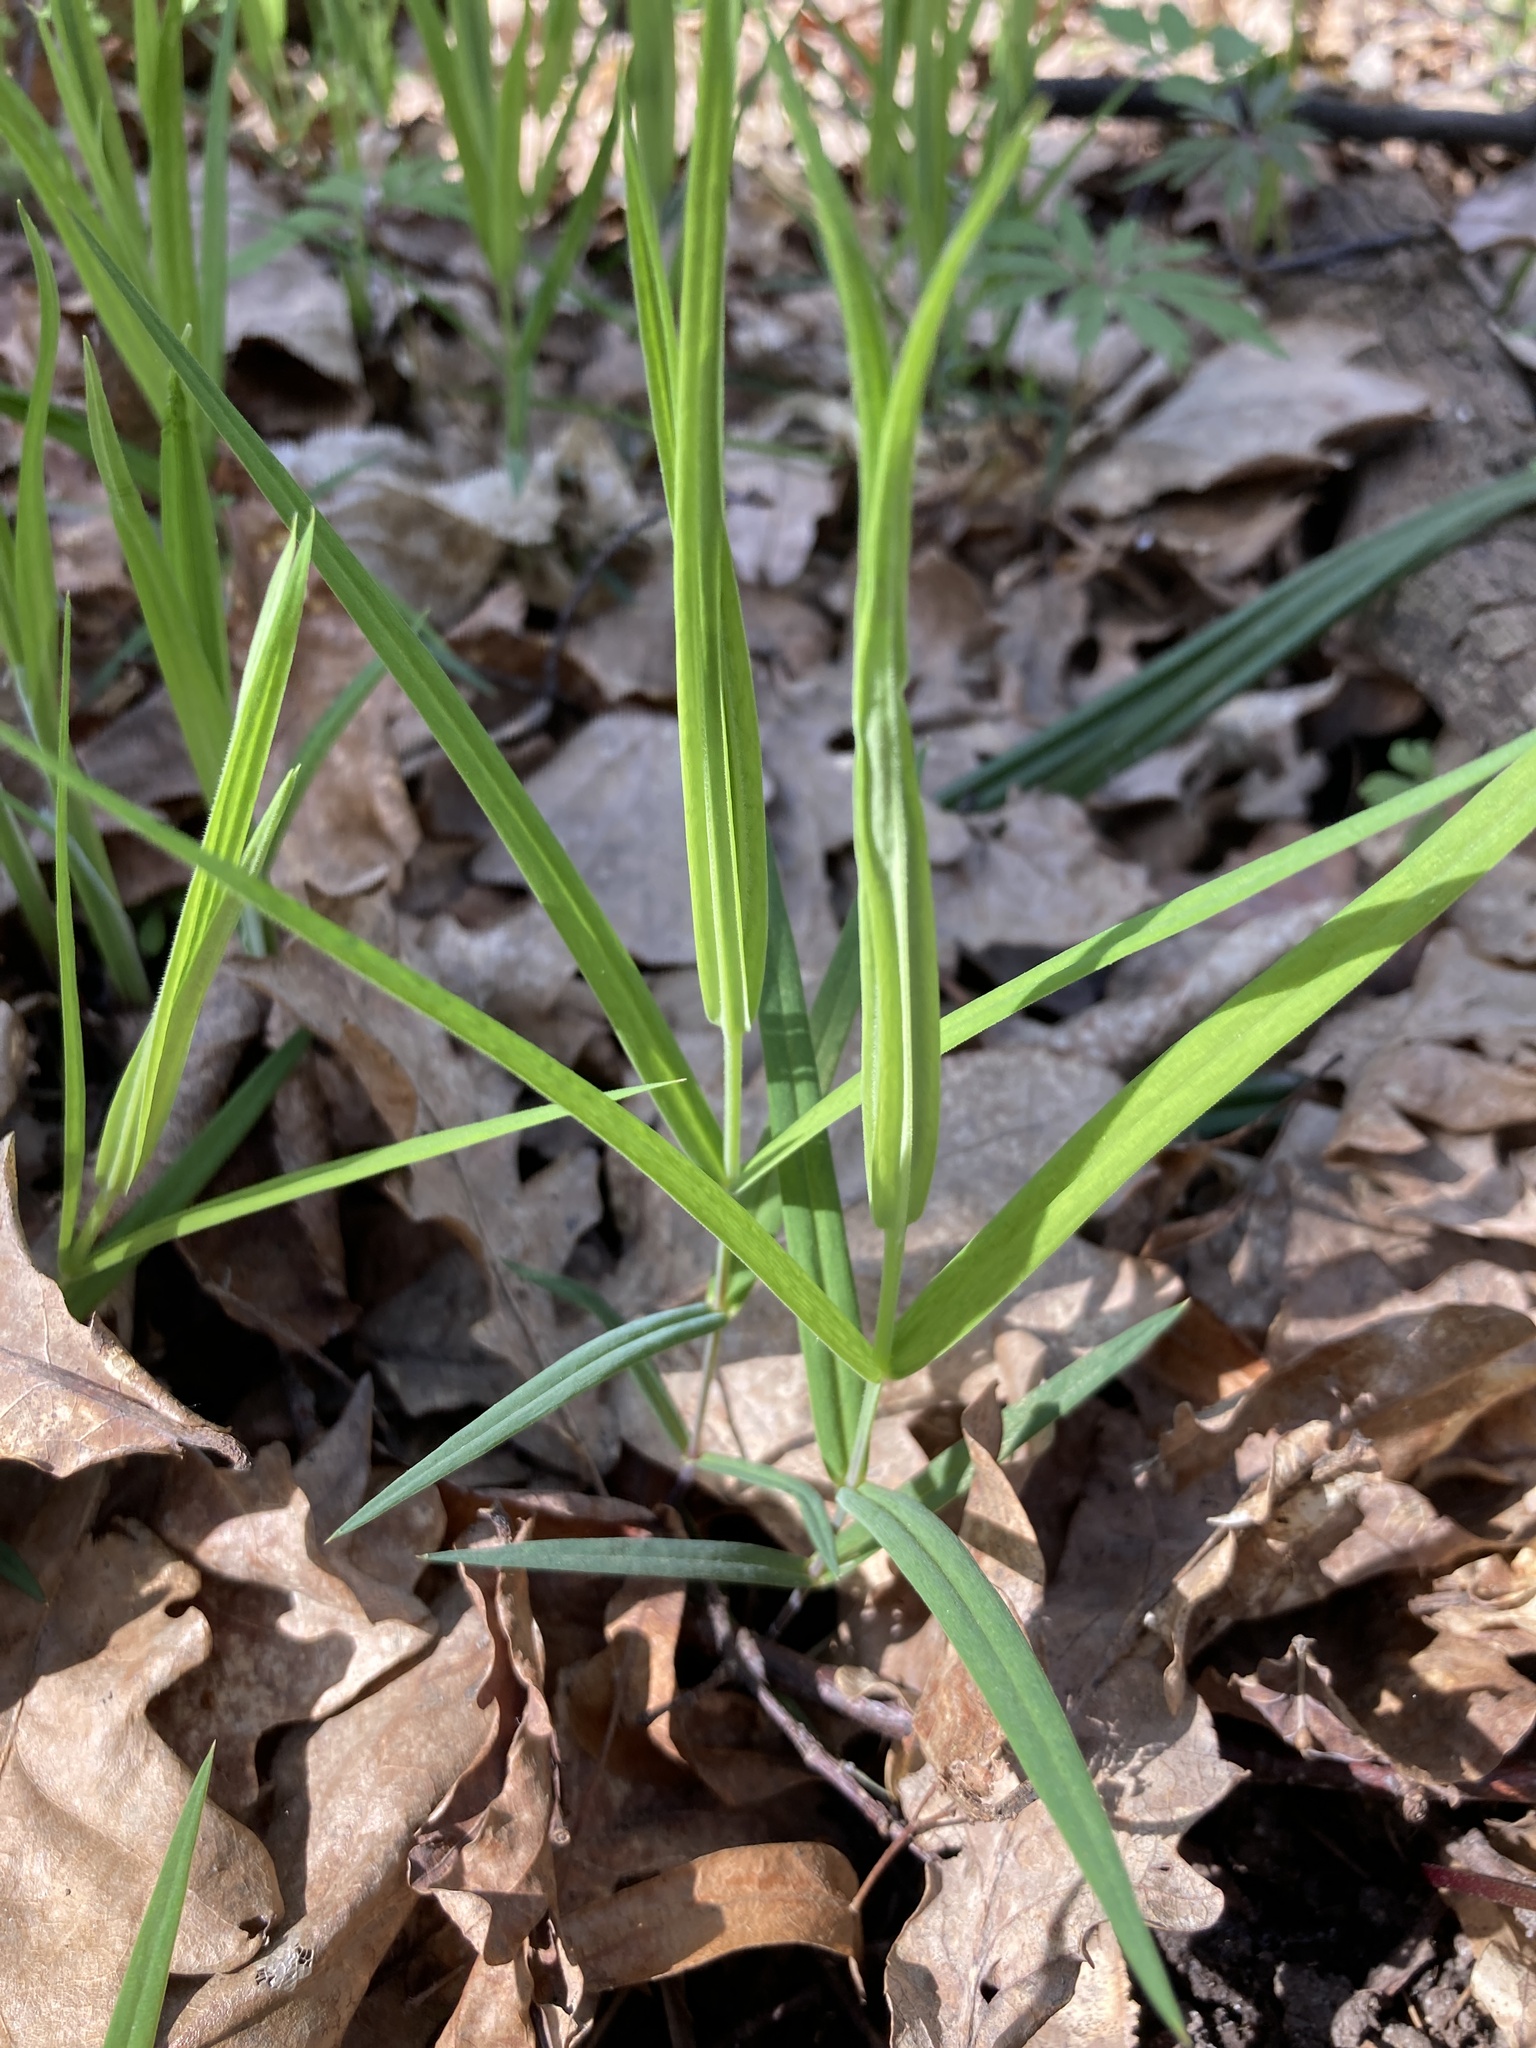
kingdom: Plantae
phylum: Tracheophyta
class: Magnoliopsida
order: Caryophyllales
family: Caryophyllaceae
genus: Rabelera
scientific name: Rabelera holostea
